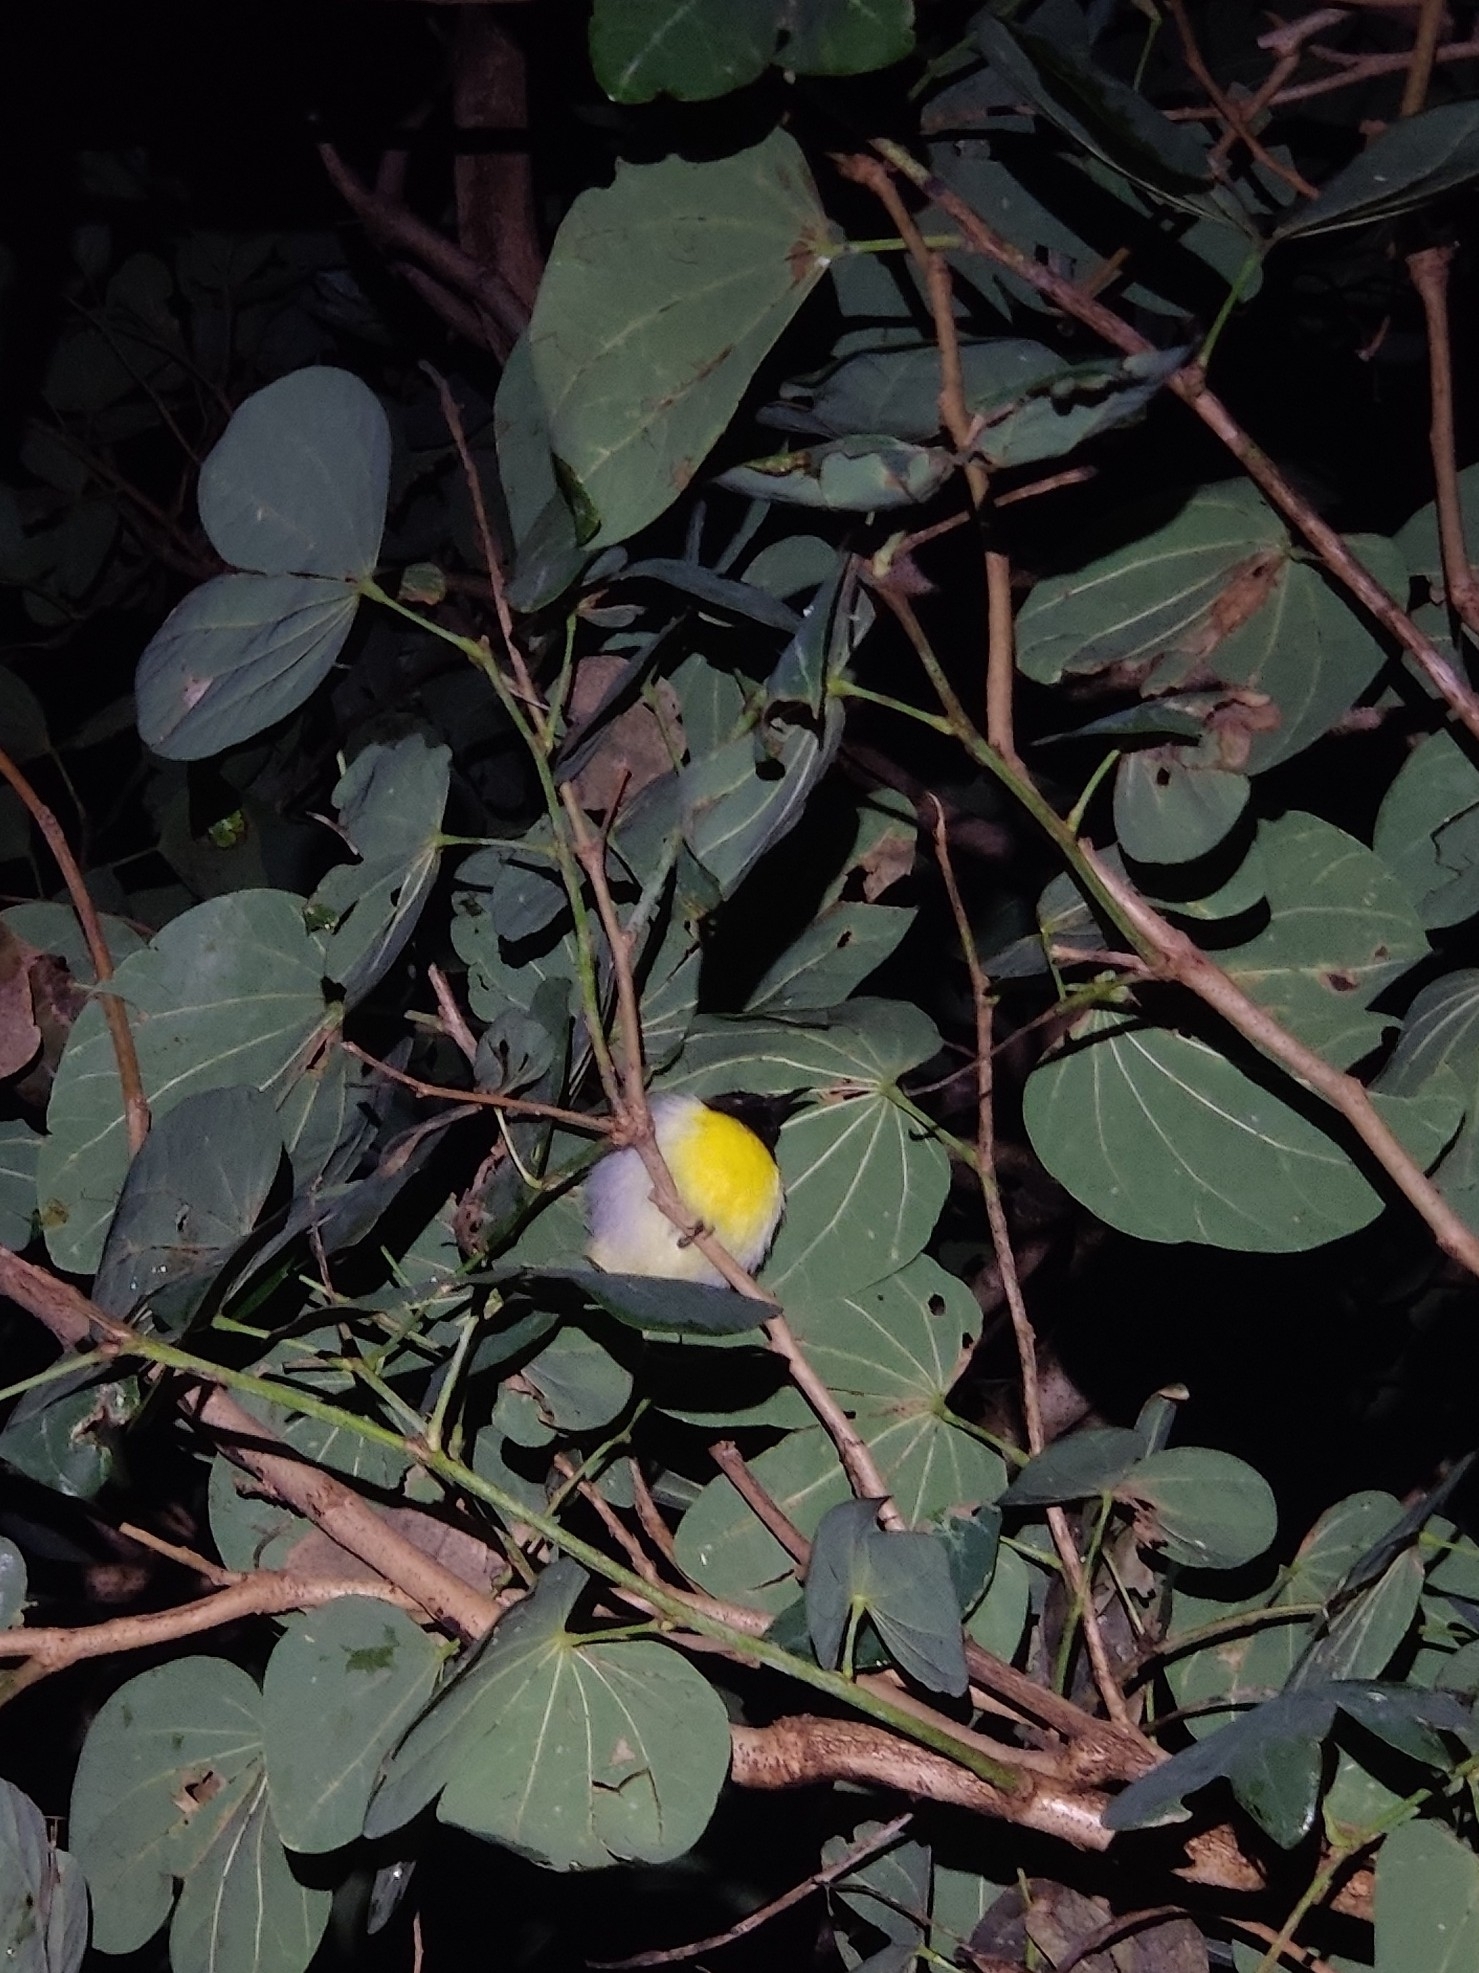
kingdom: Animalia
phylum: Chordata
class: Aves
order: Passeriformes
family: Nectariniidae
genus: Leptocoma
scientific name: Leptocoma zeylonica
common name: Purple-rumped sunbird
